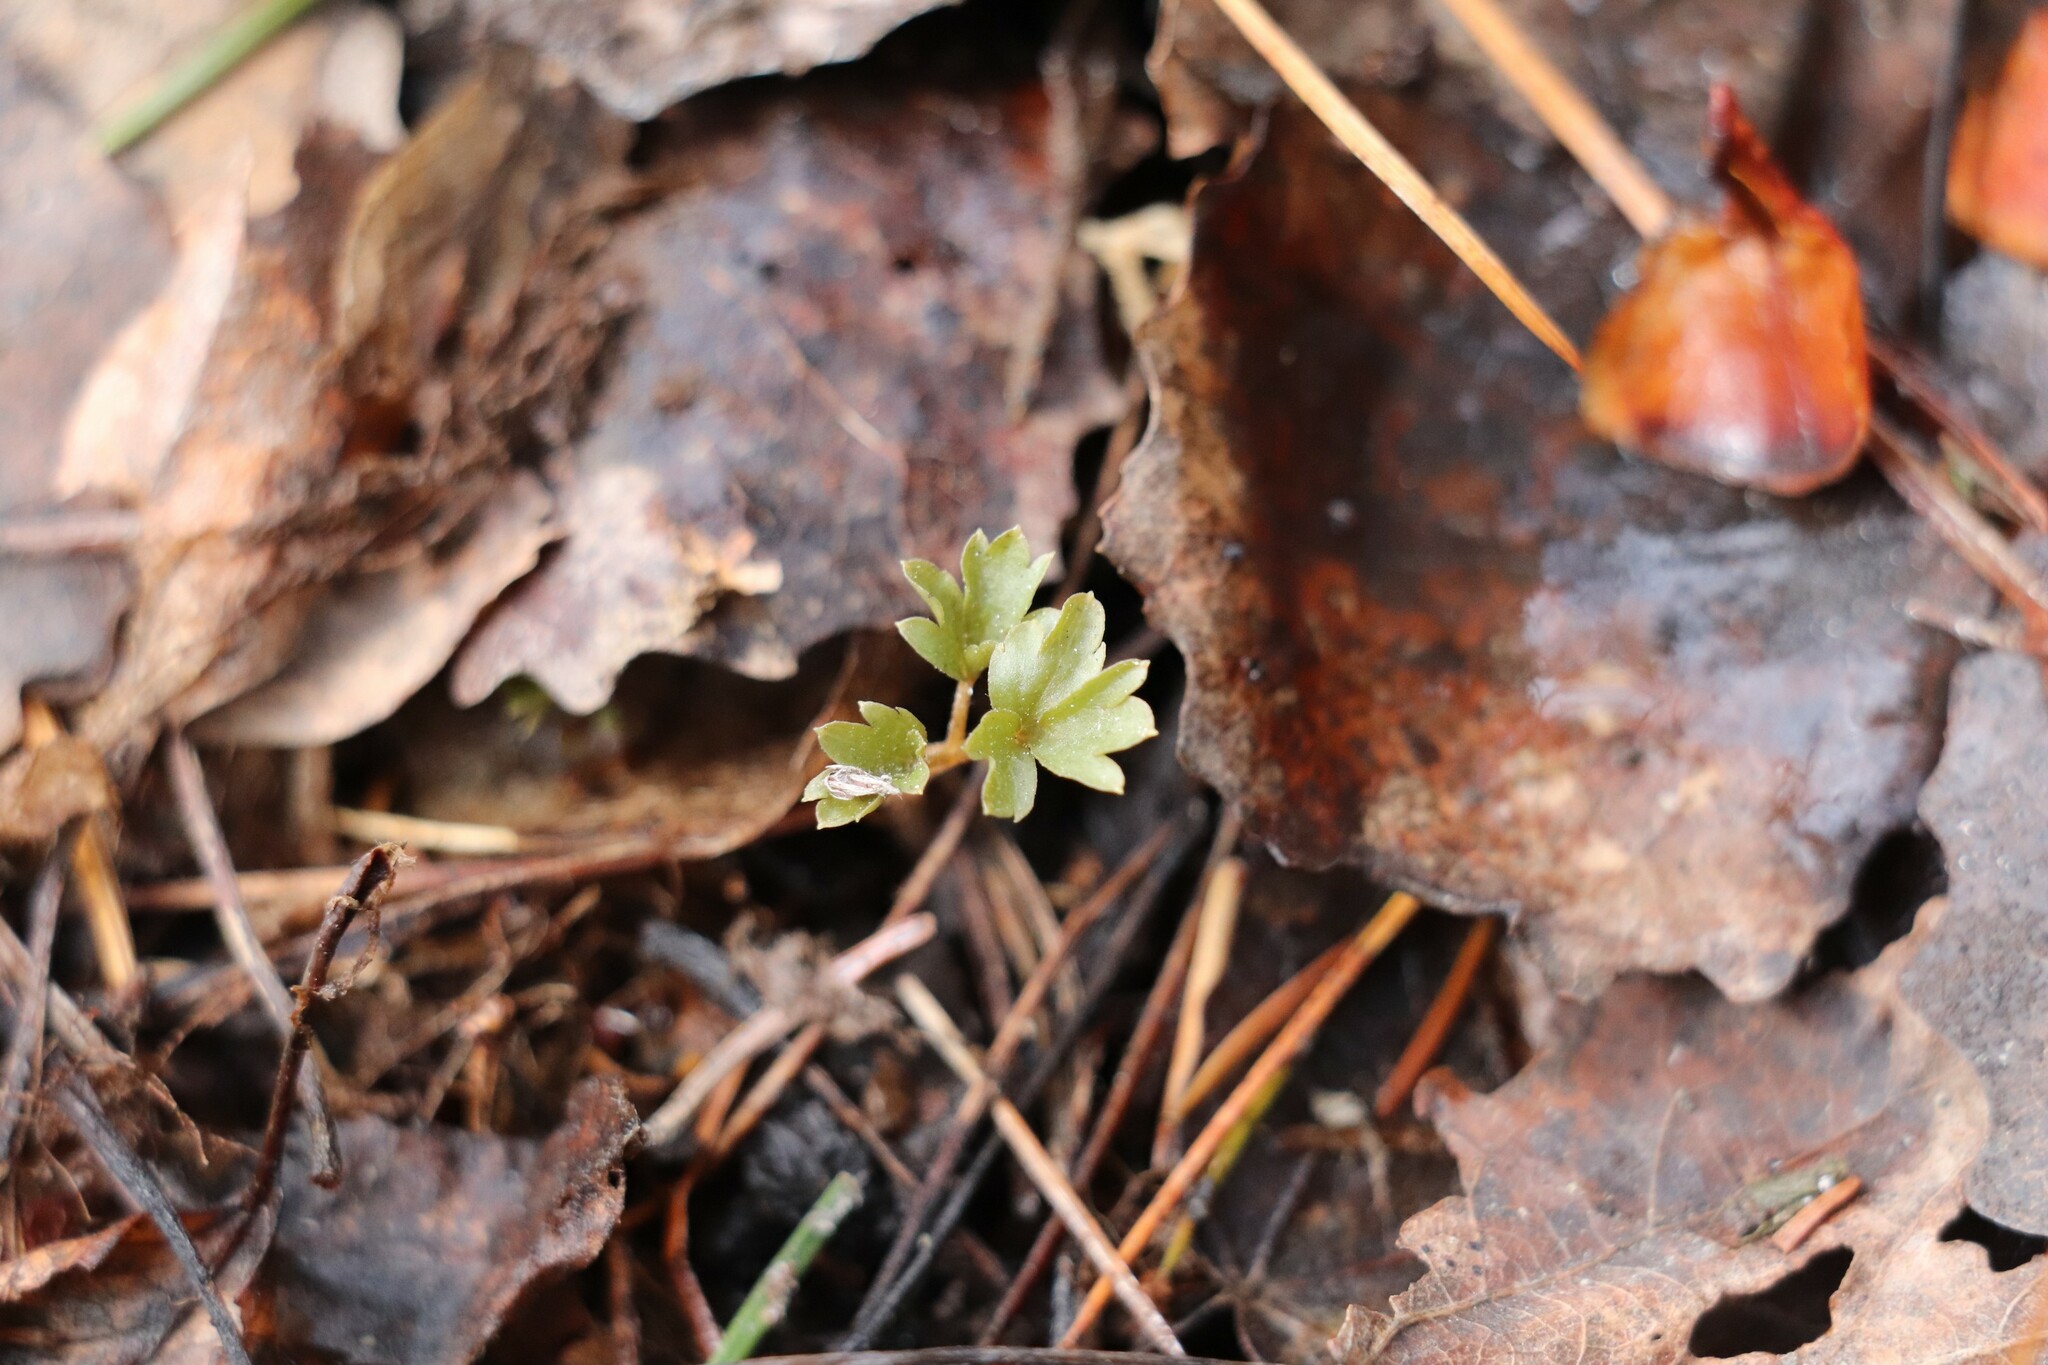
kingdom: Plantae
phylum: Tracheophyta
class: Magnoliopsida
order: Dipsacales
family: Viburnaceae
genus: Adoxa
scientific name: Adoxa moschatellina
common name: Moschatel
